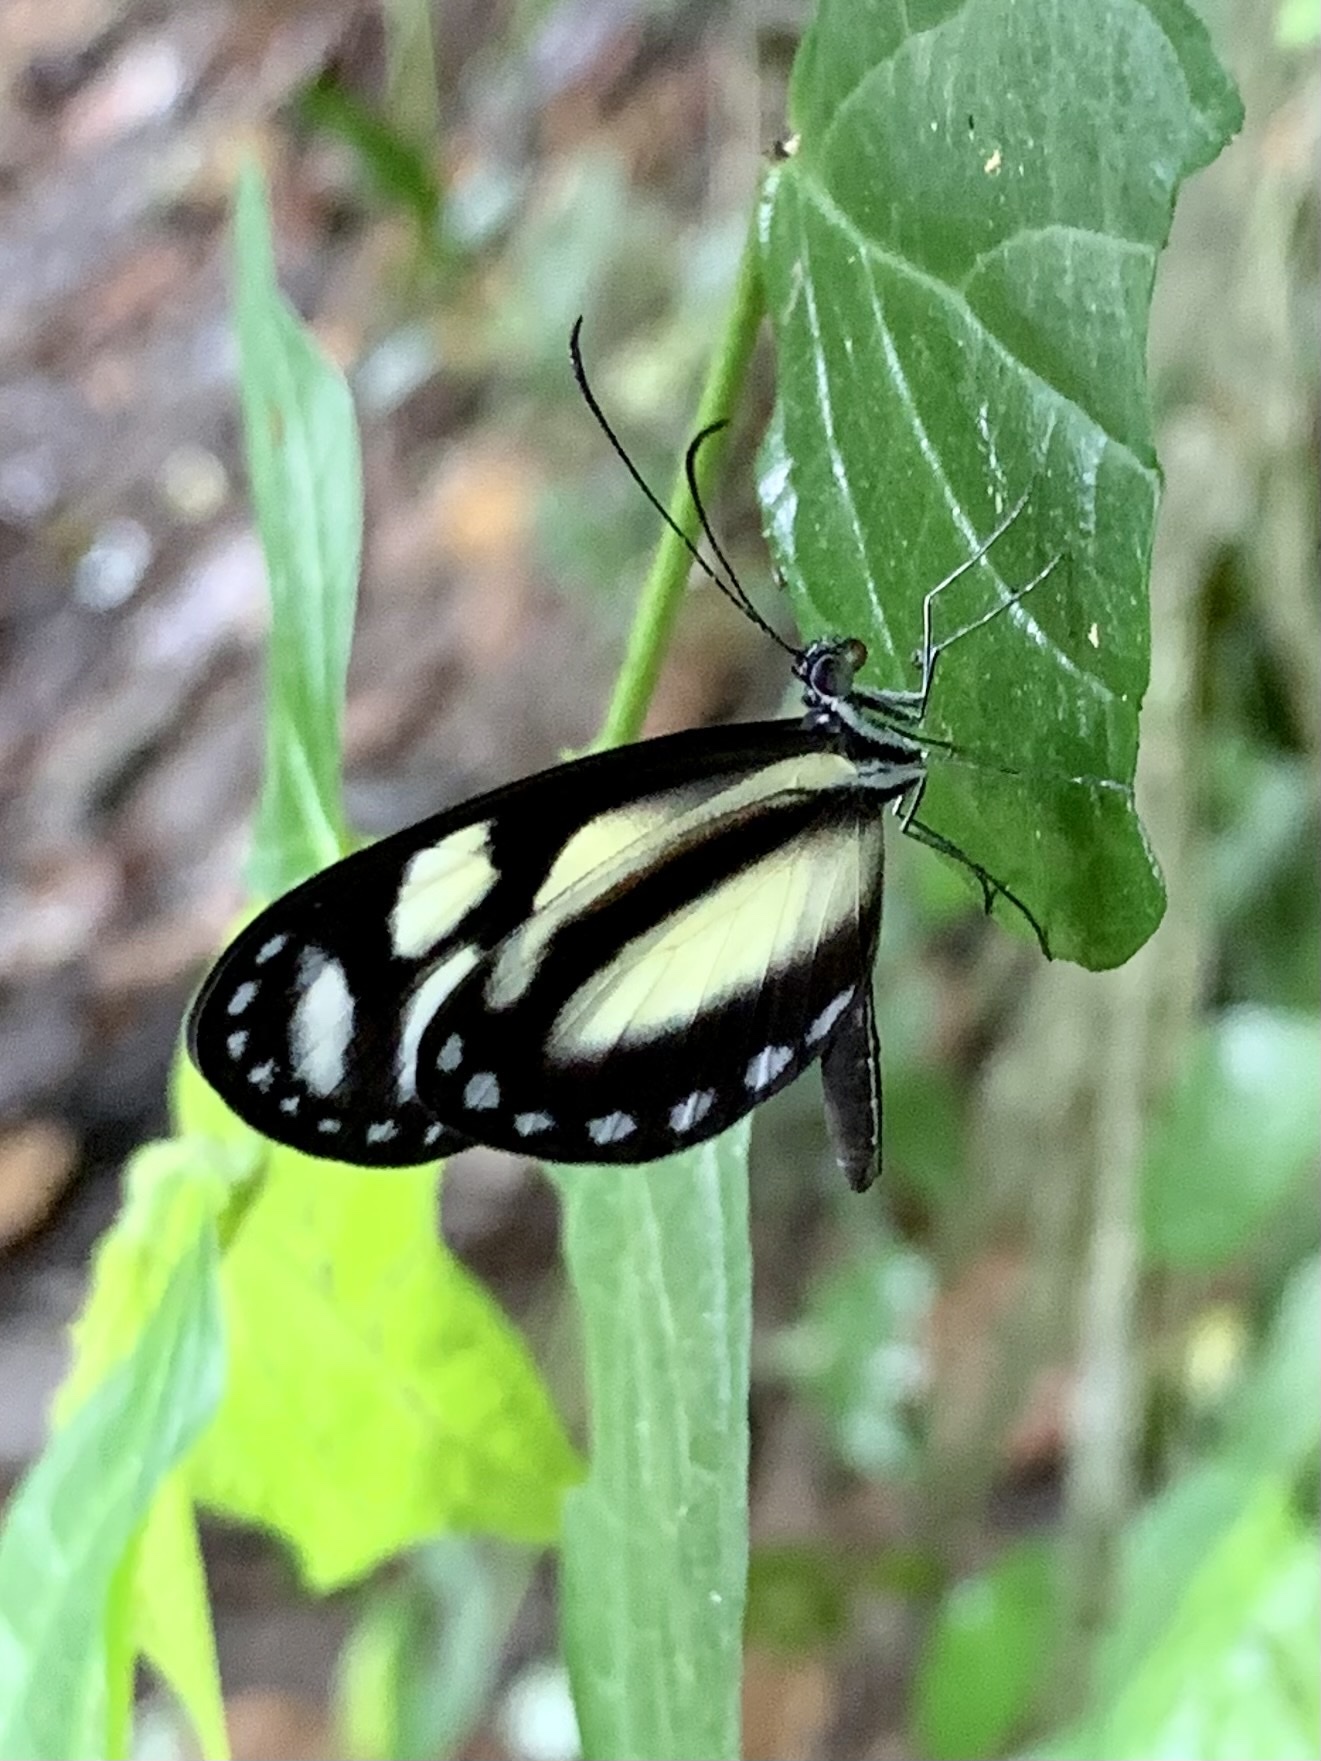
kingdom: Animalia
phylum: Arthropoda
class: Insecta
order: Lepidoptera
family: Pieridae
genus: Dismorphia
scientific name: Dismorphia theucharila
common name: Clearwing mimic-white
